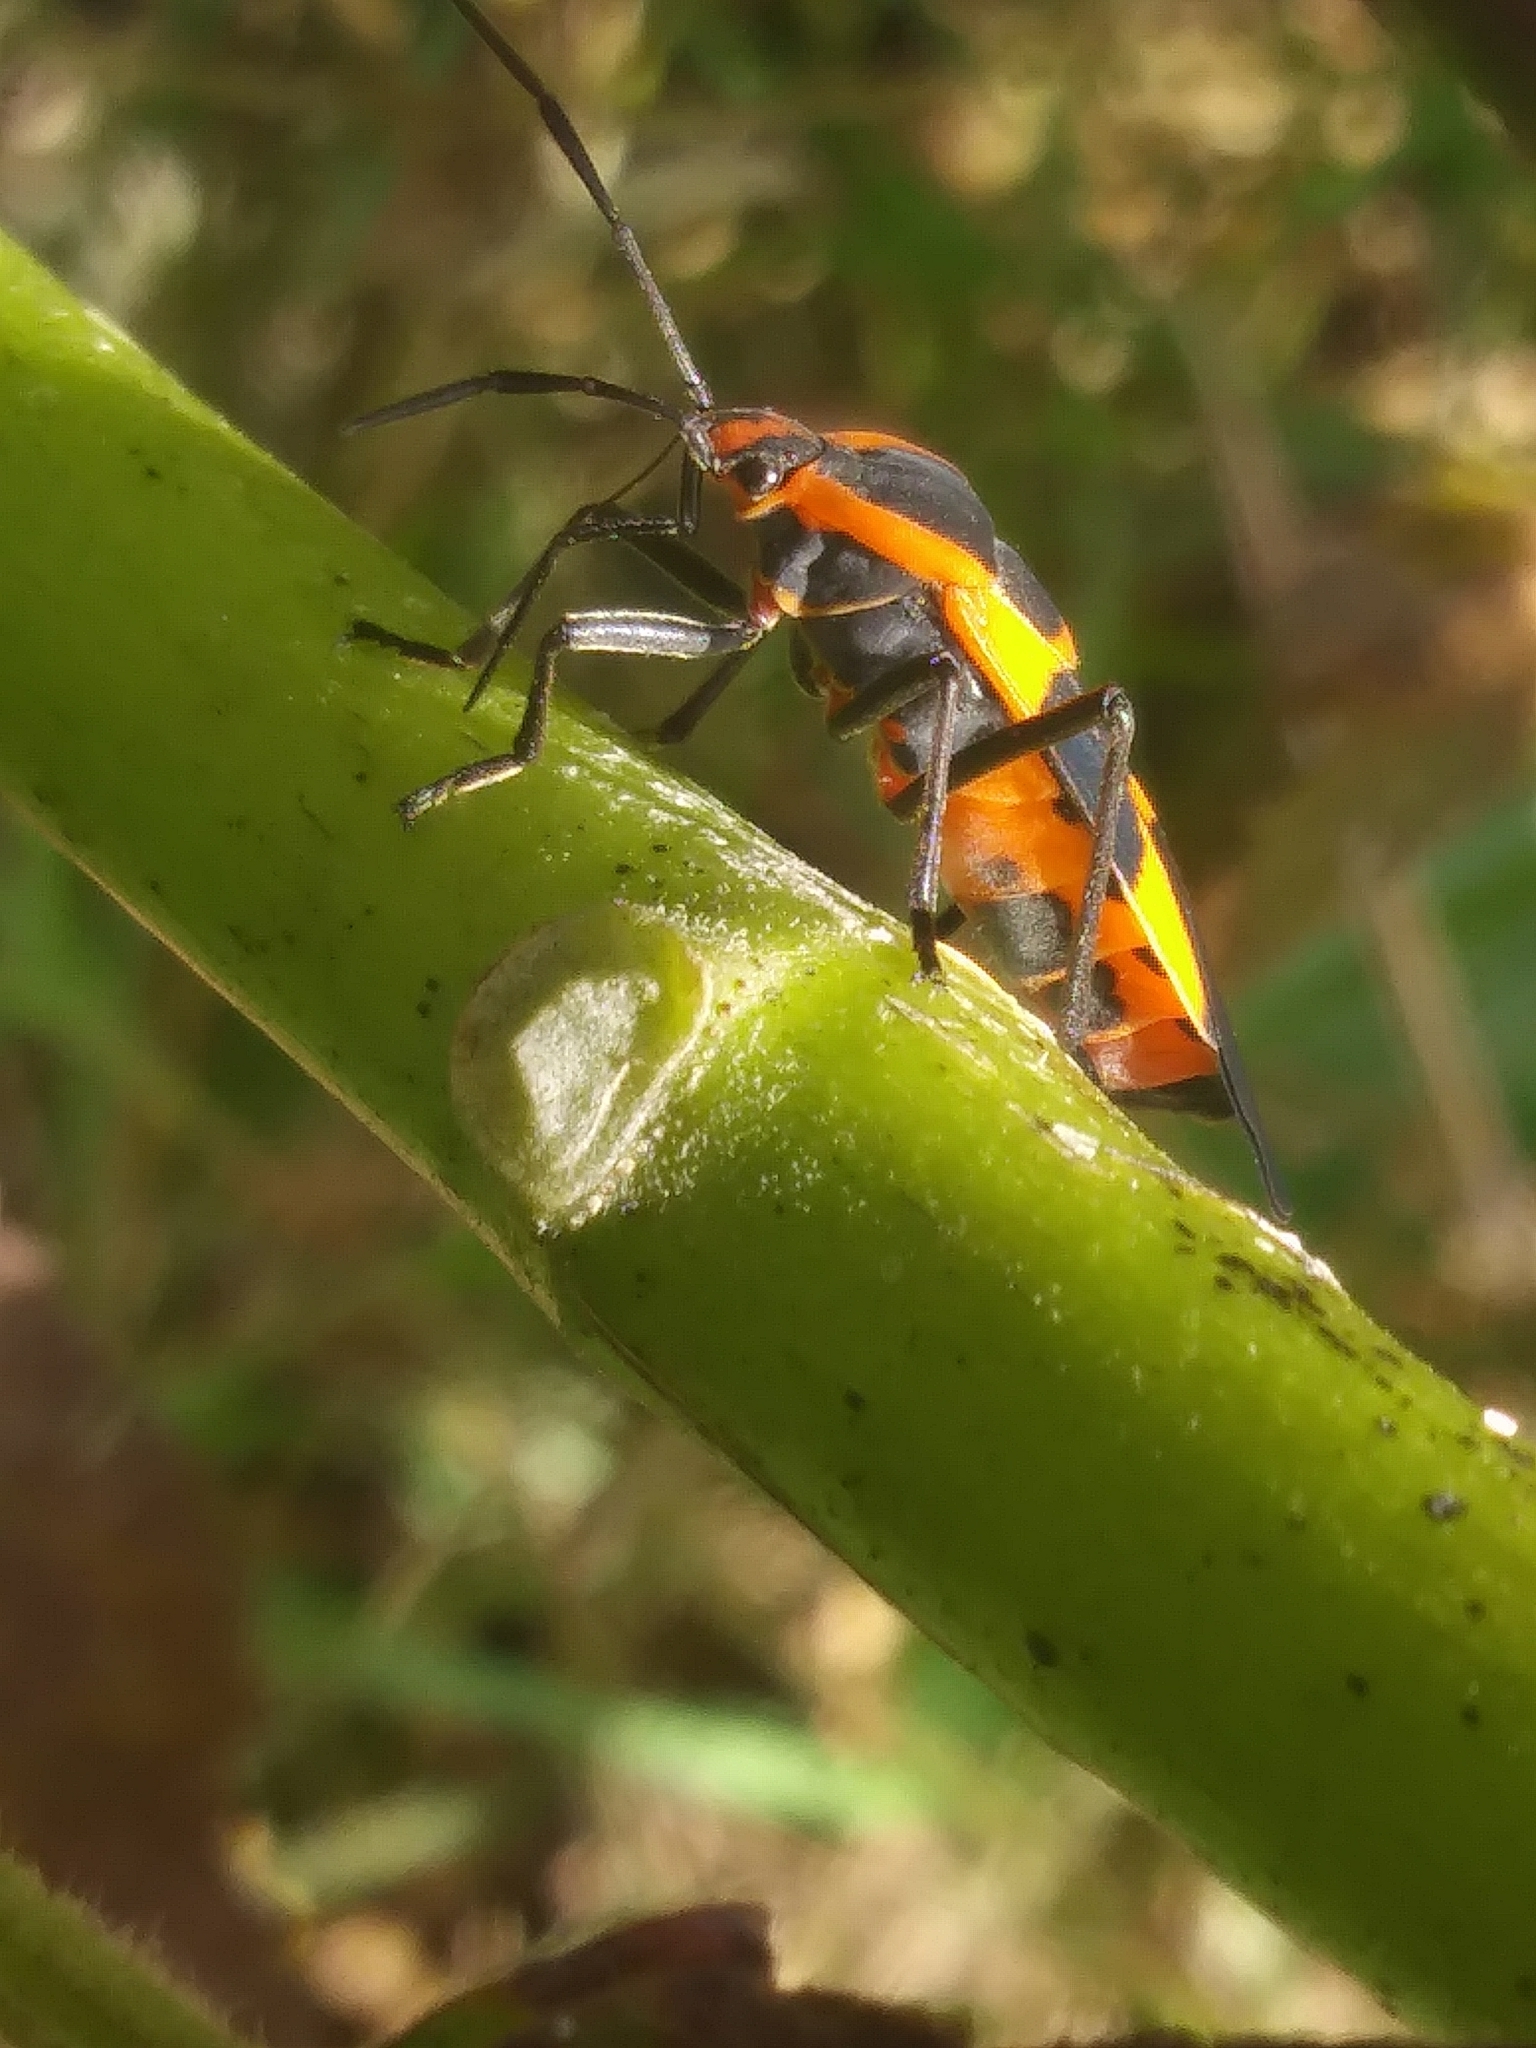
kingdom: Animalia
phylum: Arthropoda
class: Insecta
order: Hemiptera
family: Lygaeidae
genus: Oncopeltus
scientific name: Oncopeltus fasciatus
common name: Large milkweed bug
